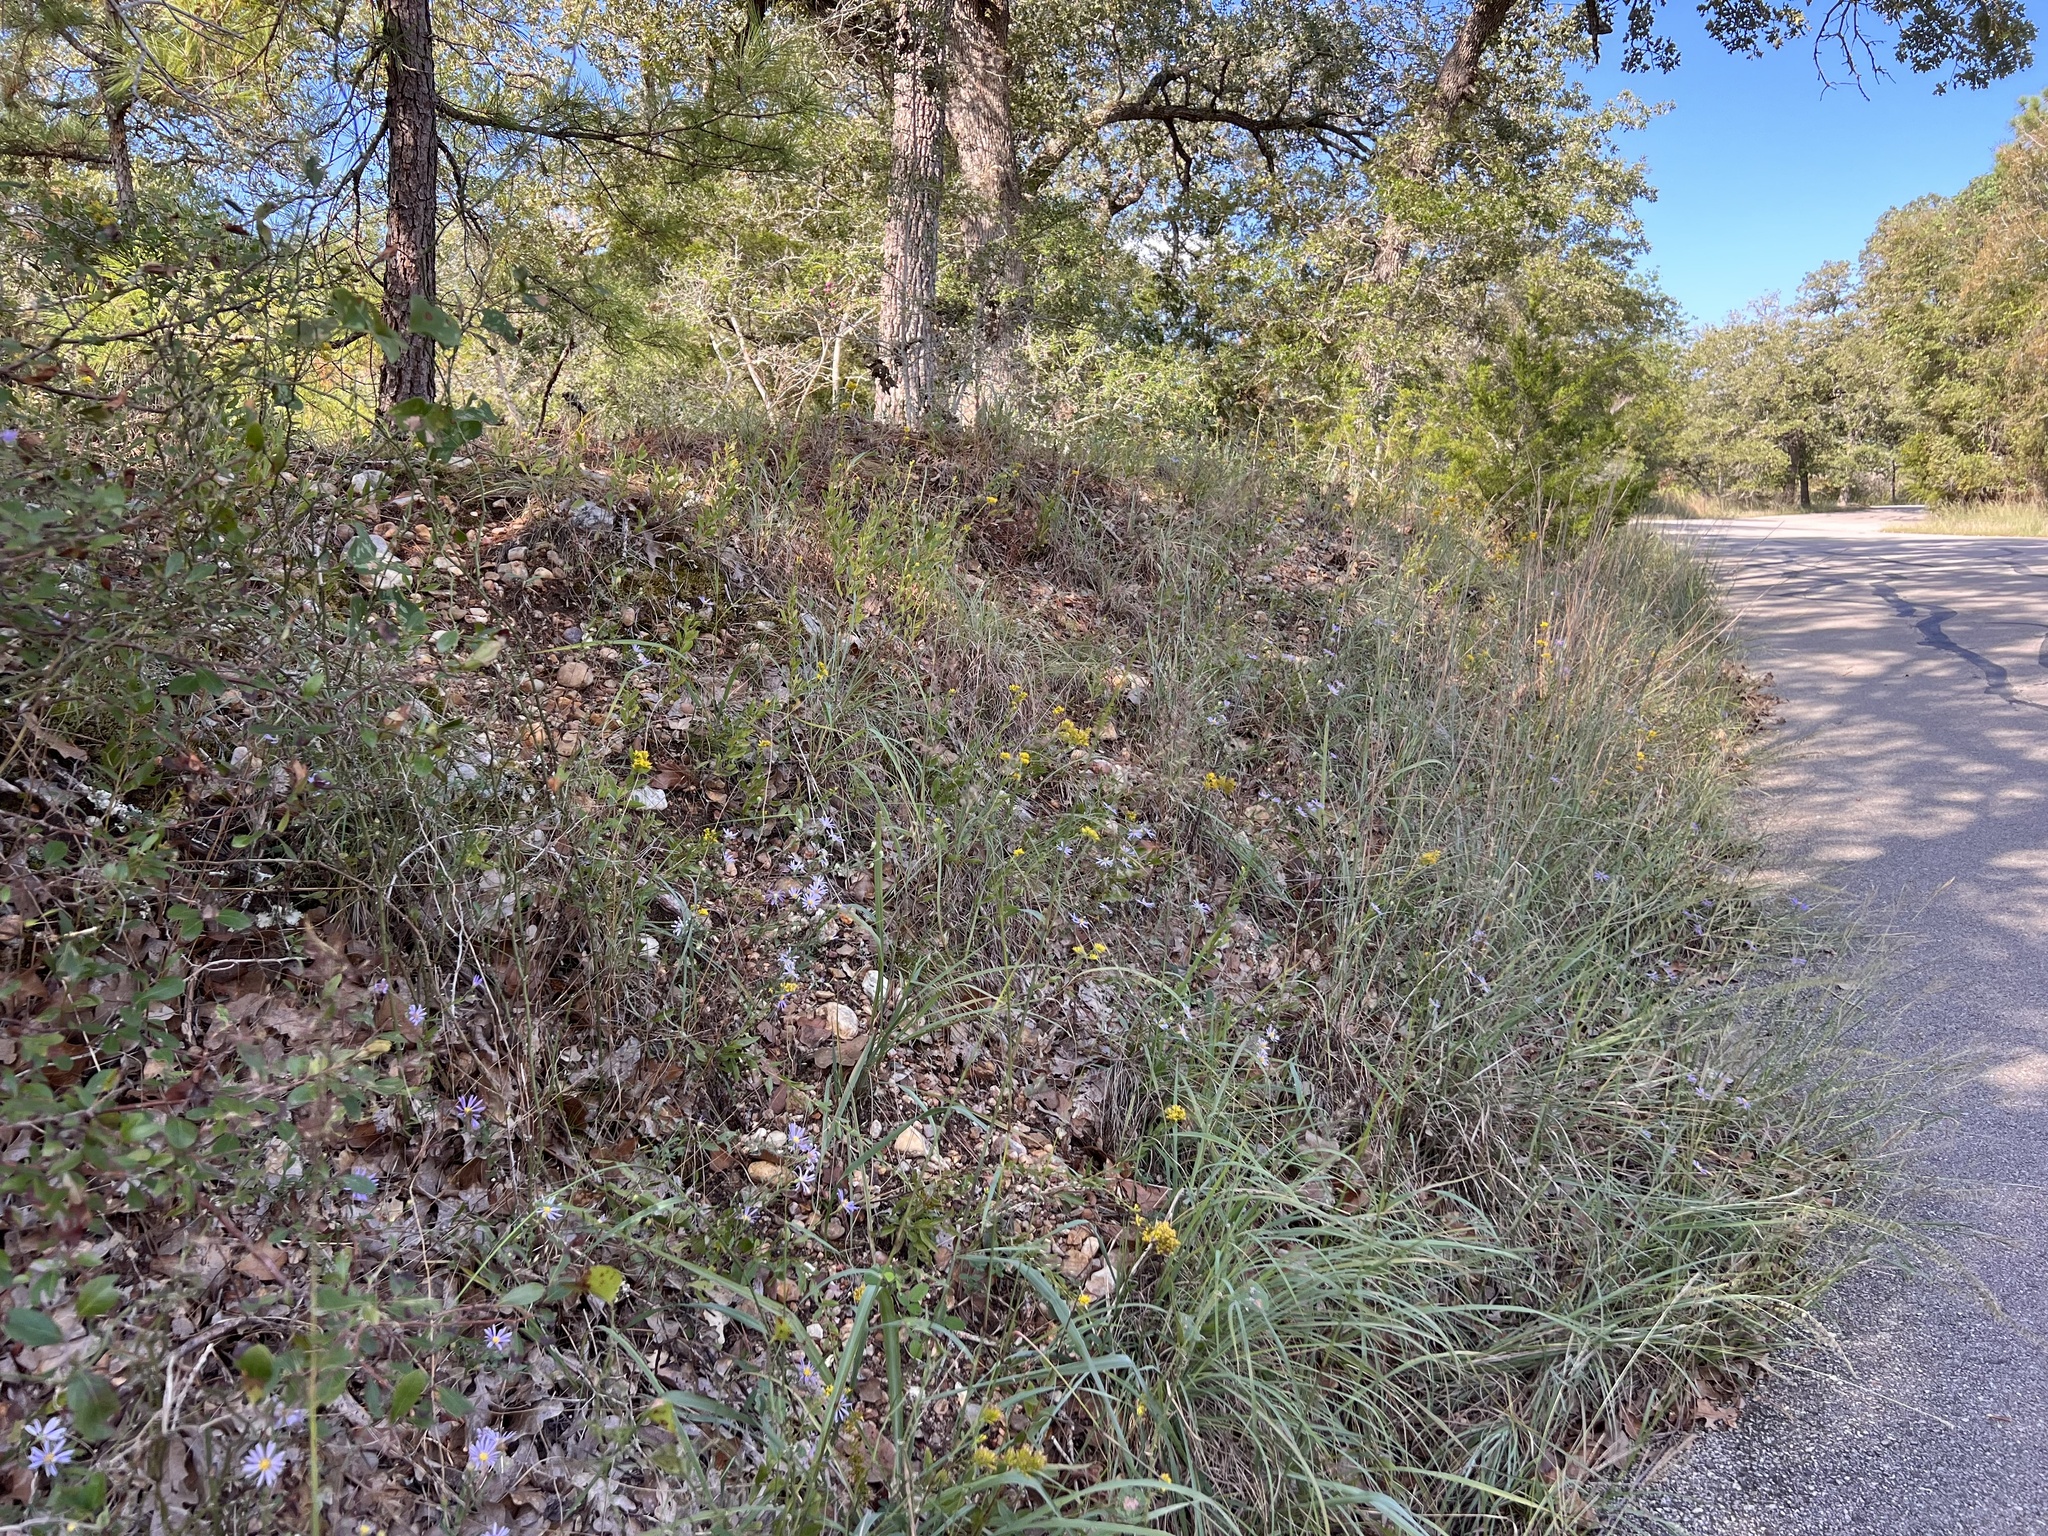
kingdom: Plantae
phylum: Tracheophyta
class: Liliopsida
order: Poales
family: Poaceae
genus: Bouteloua
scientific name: Bouteloua curtipendula
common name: Side-oats grama
